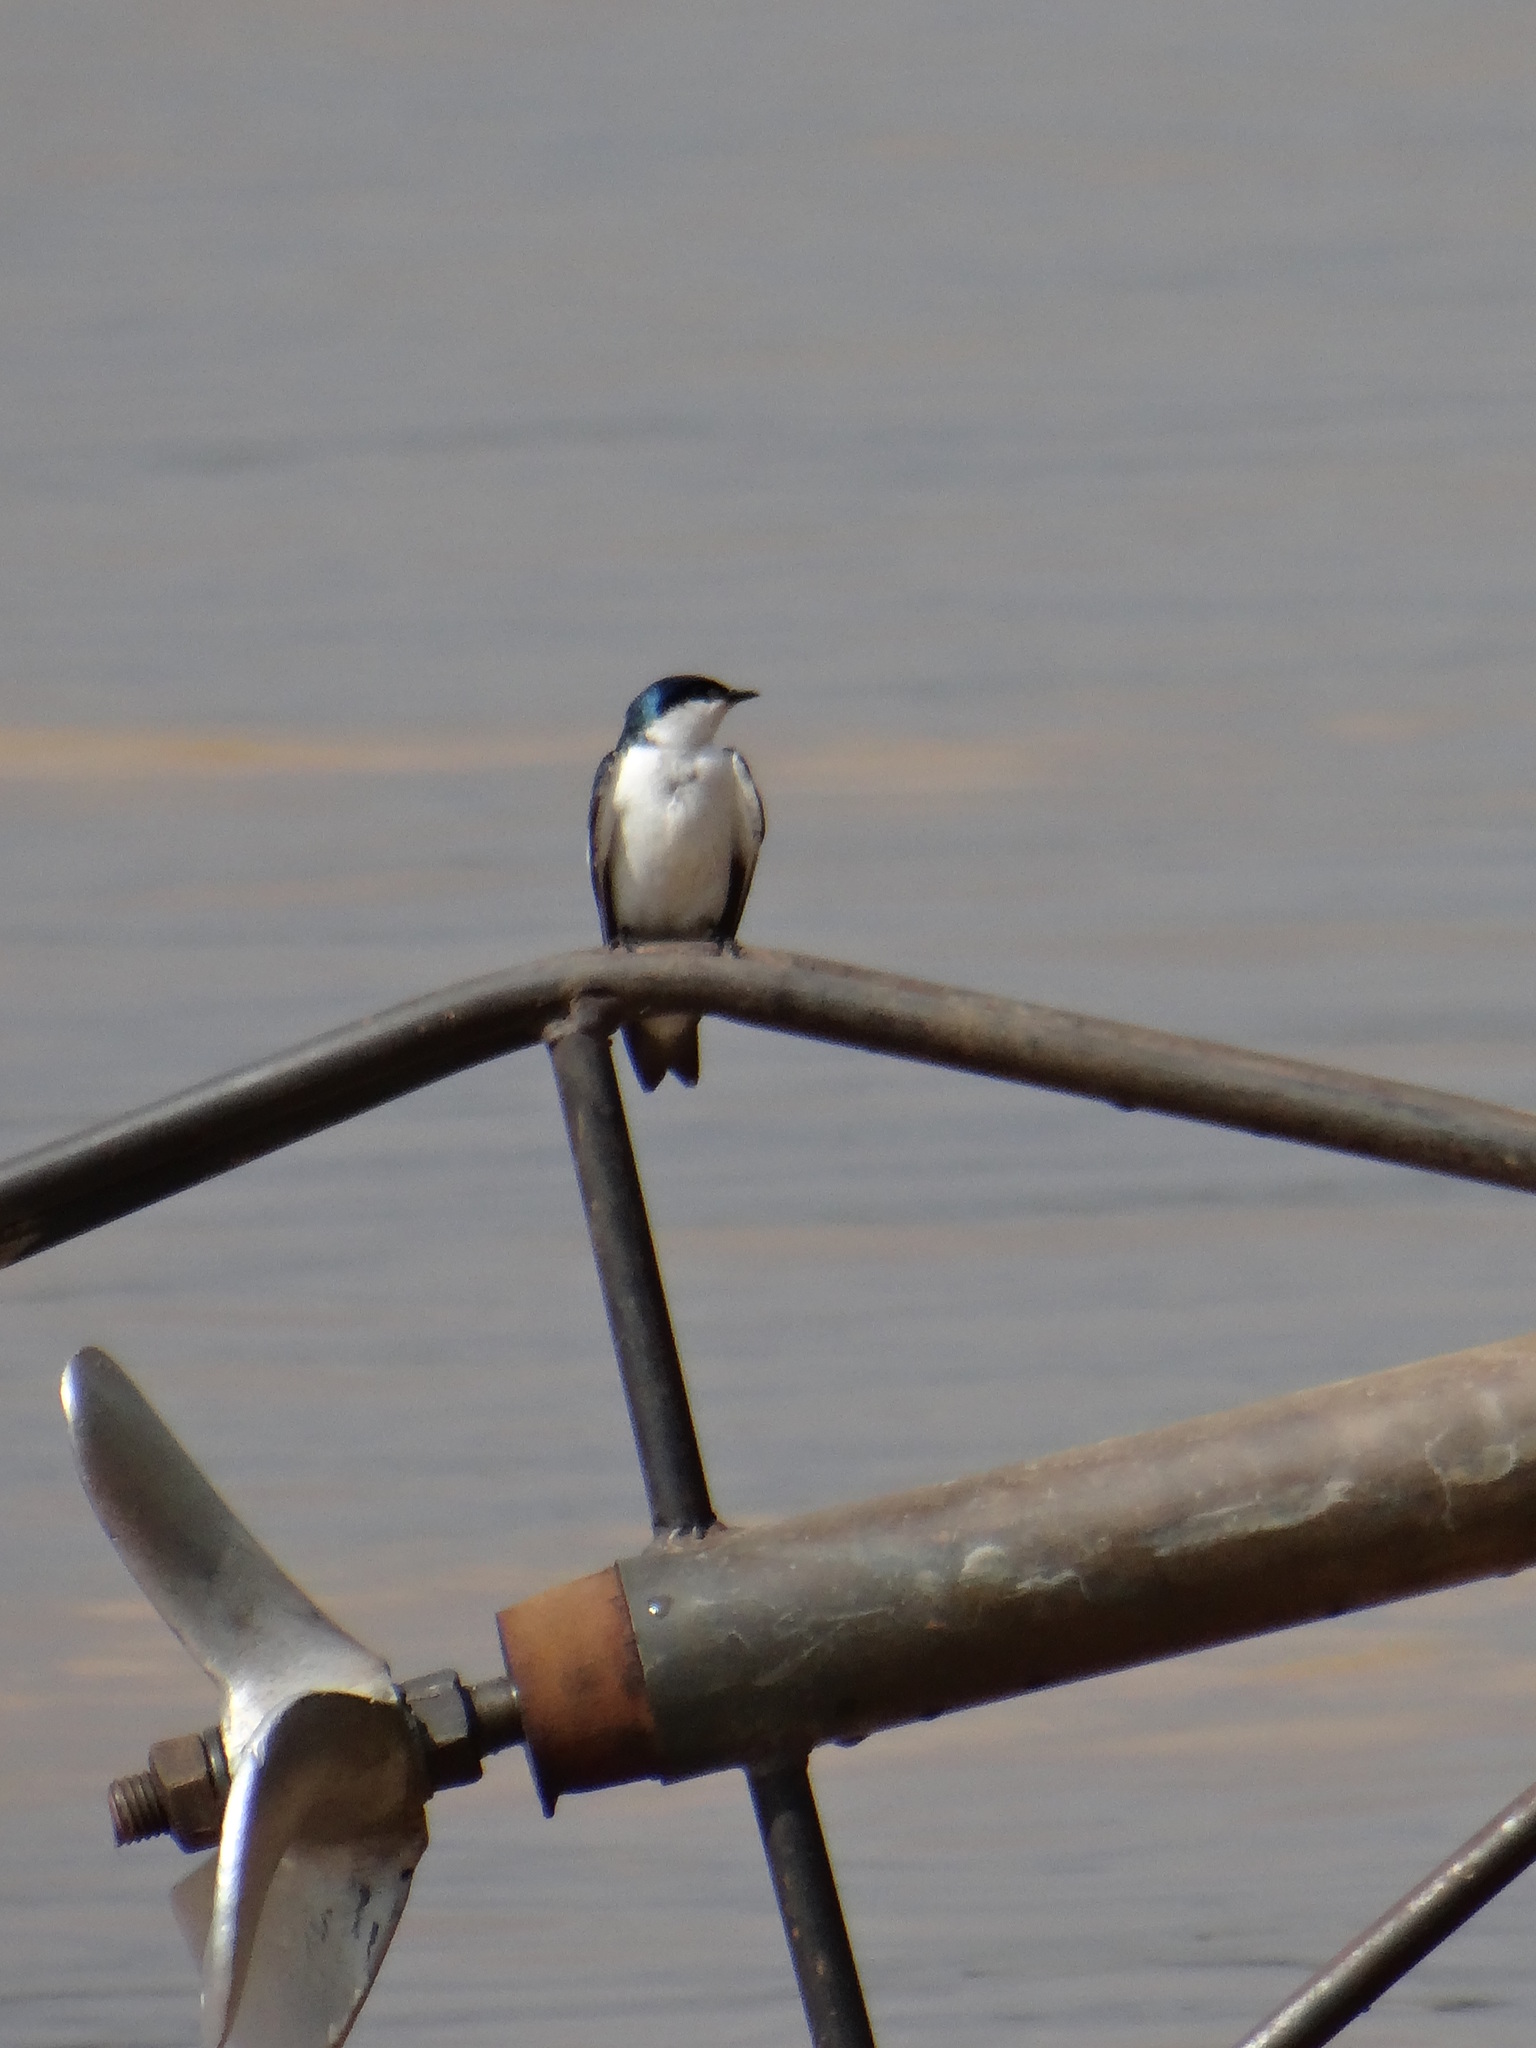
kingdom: Animalia
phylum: Chordata
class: Aves
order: Passeriformes
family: Hirundinidae
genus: Tachycineta
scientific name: Tachycineta albiventer
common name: White-winged swallow
